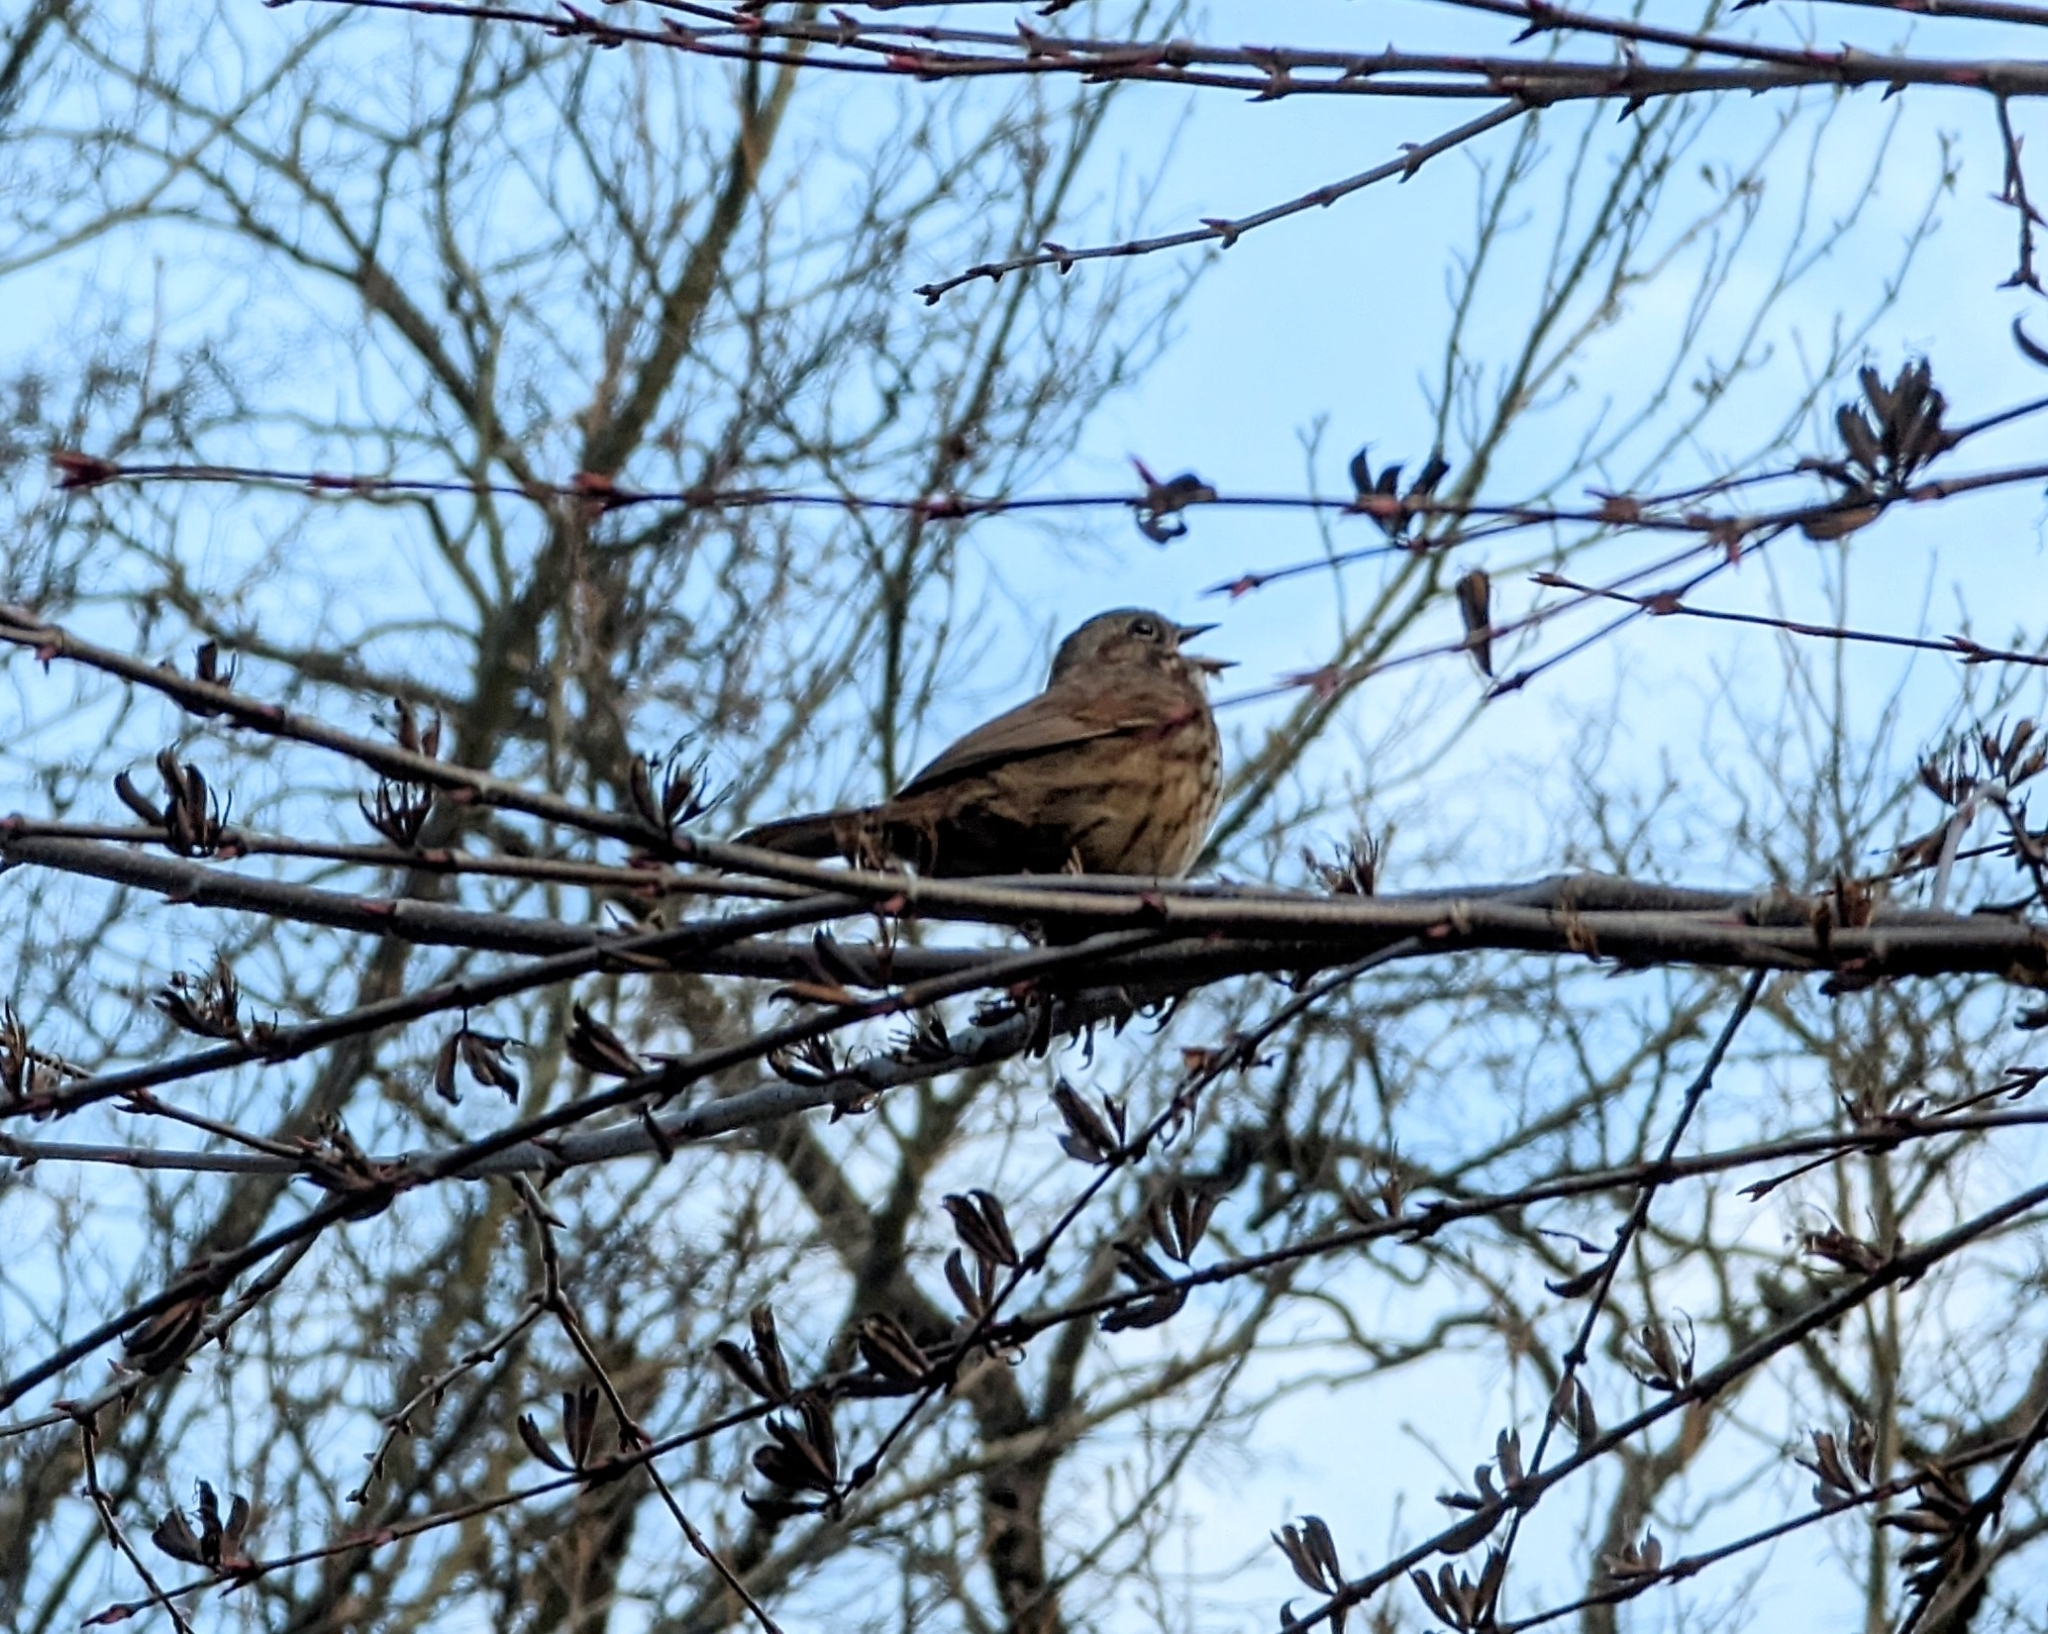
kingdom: Animalia
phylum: Chordata
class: Aves
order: Passeriformes
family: Passerellidae
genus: Melospiza
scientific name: Melospiza melodia
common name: Song sparrow
